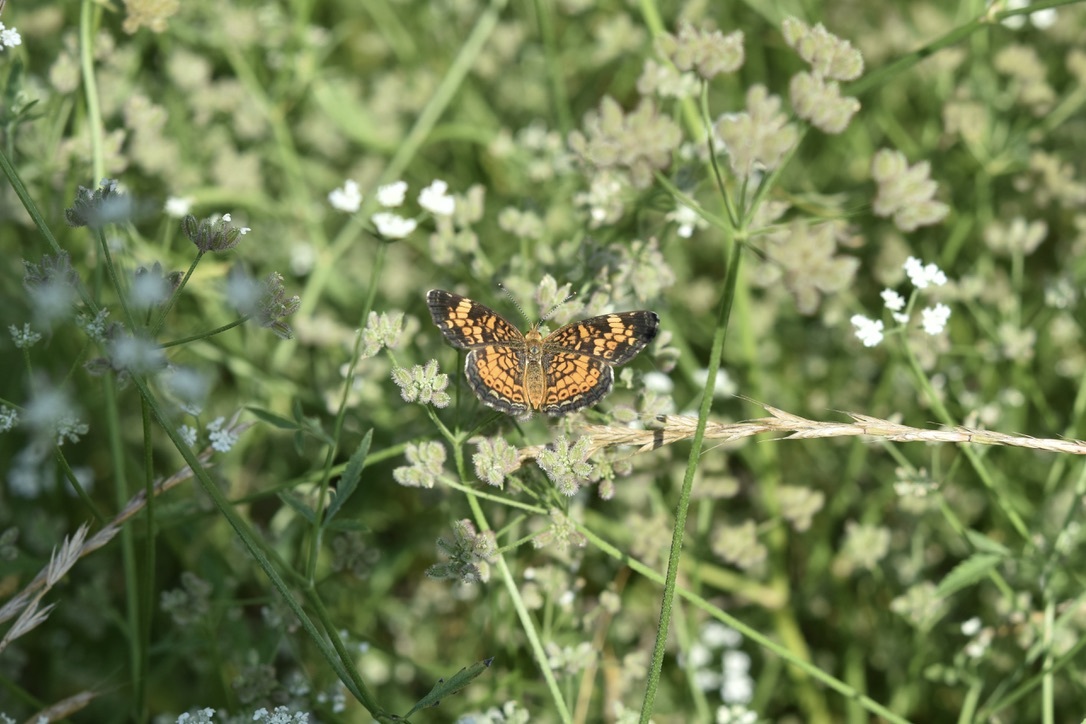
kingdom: Animalia
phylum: Arthropoda
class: Insecta
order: Lepidoptera
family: Nymphalidae
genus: Phyciodes
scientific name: Phyciodes tharos
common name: Pearl crescent
